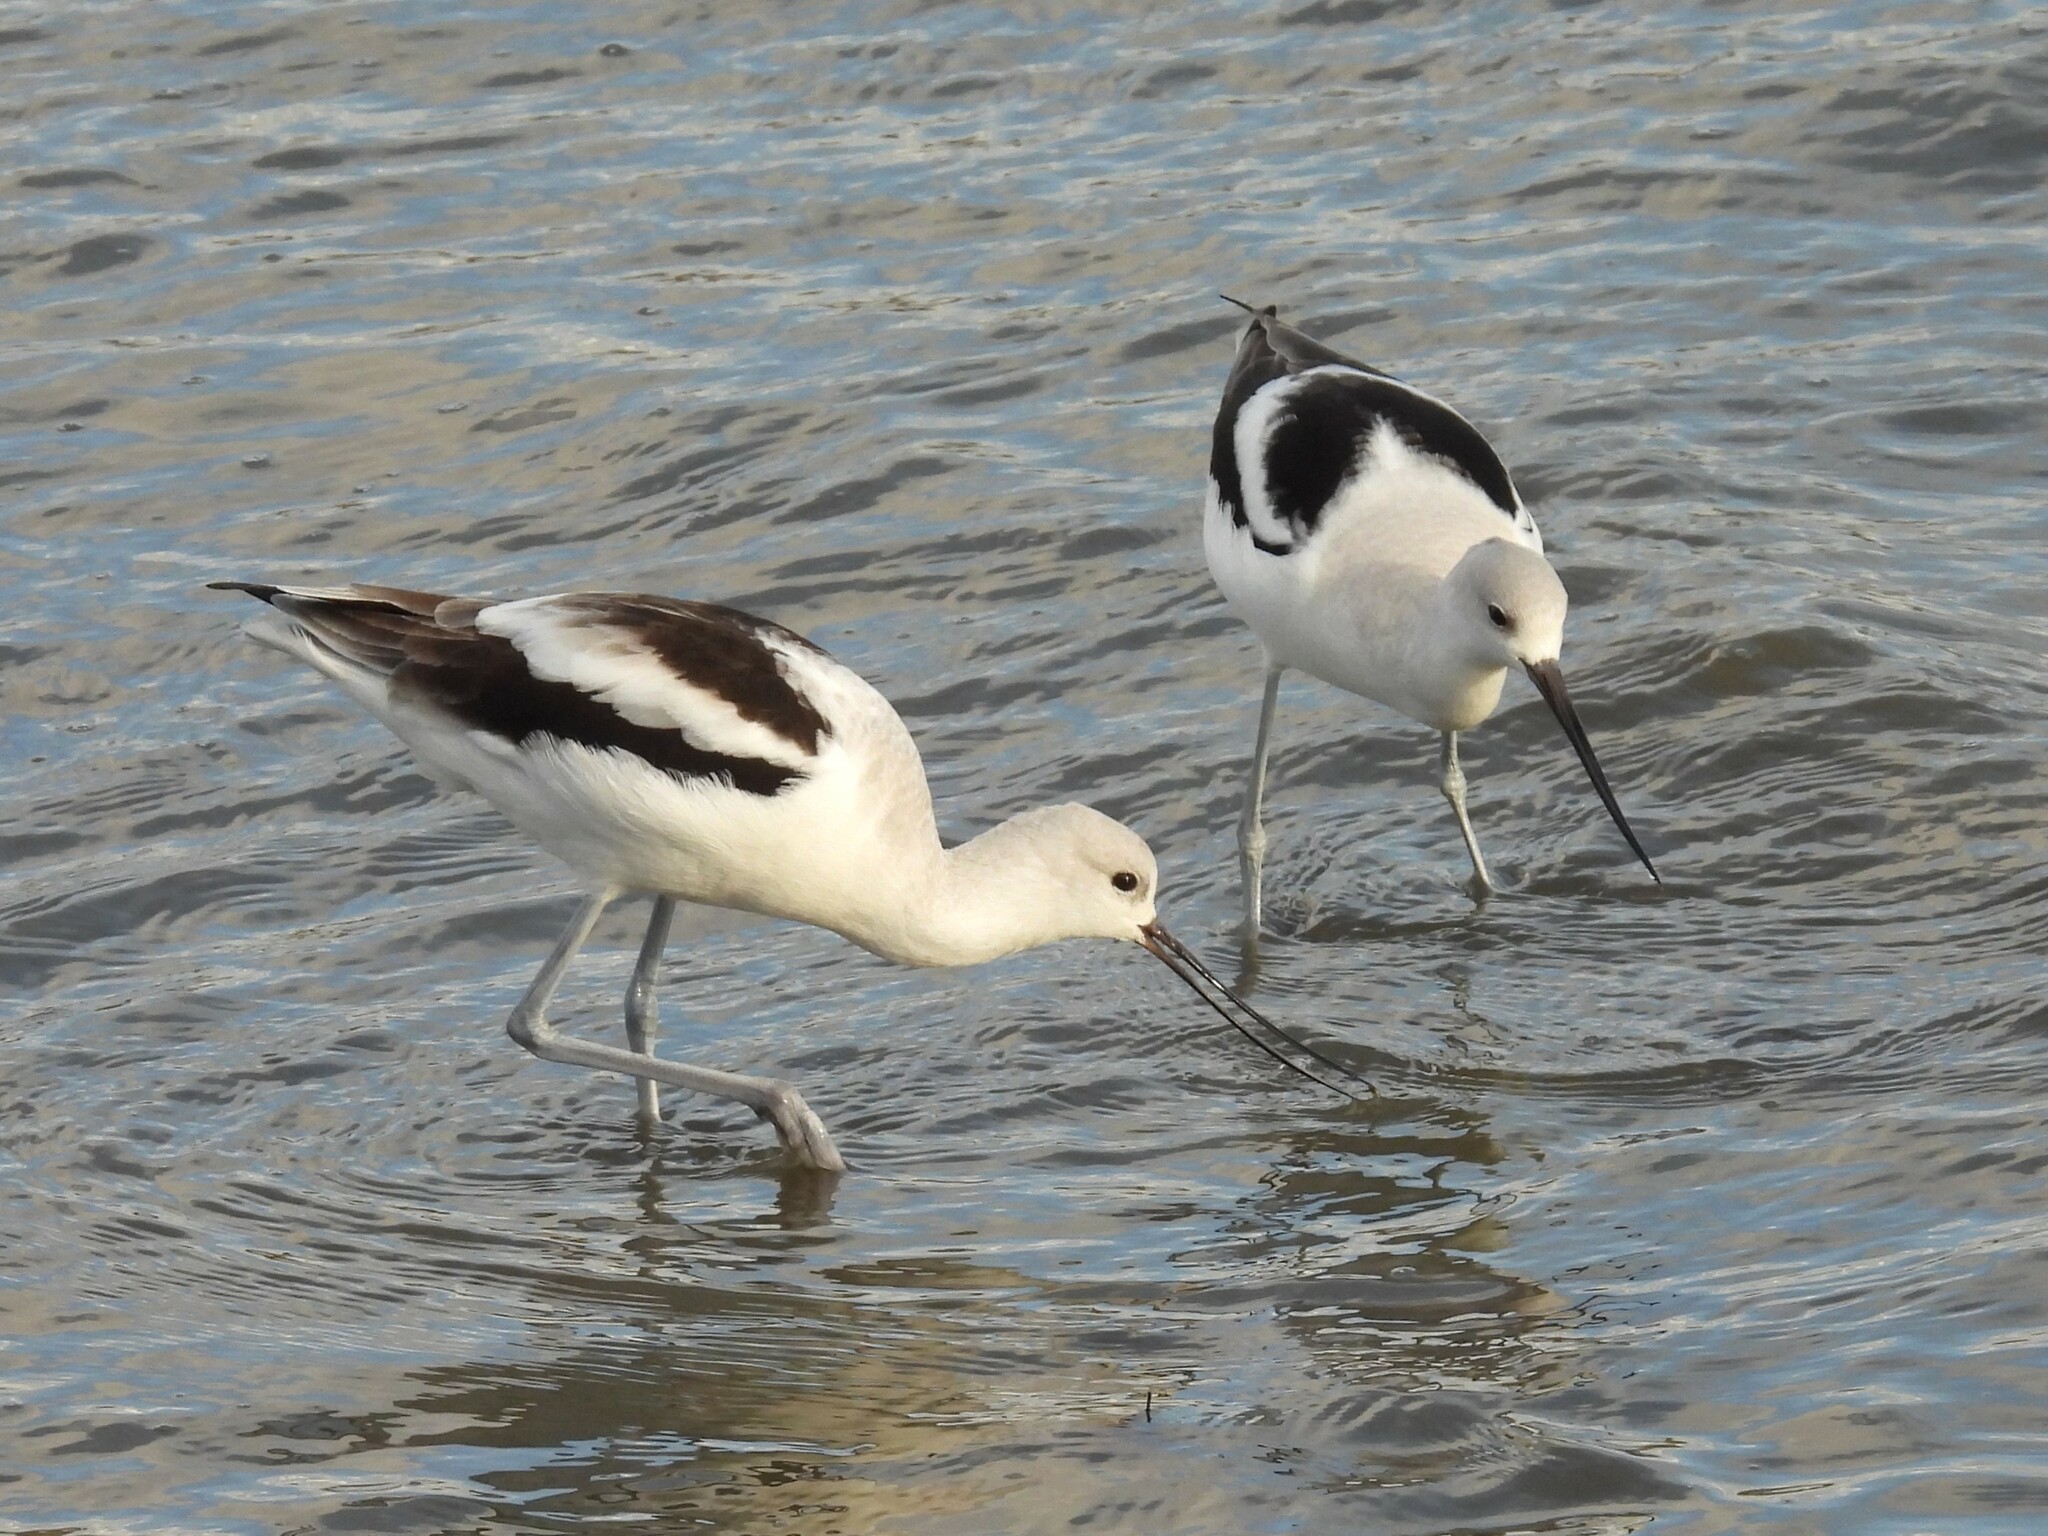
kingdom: Animalia
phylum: Chordata
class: Aves
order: Charadriiformes
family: Recurvirostridae
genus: Recurvirostra
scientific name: Recurvirostra americana
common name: American avocet
